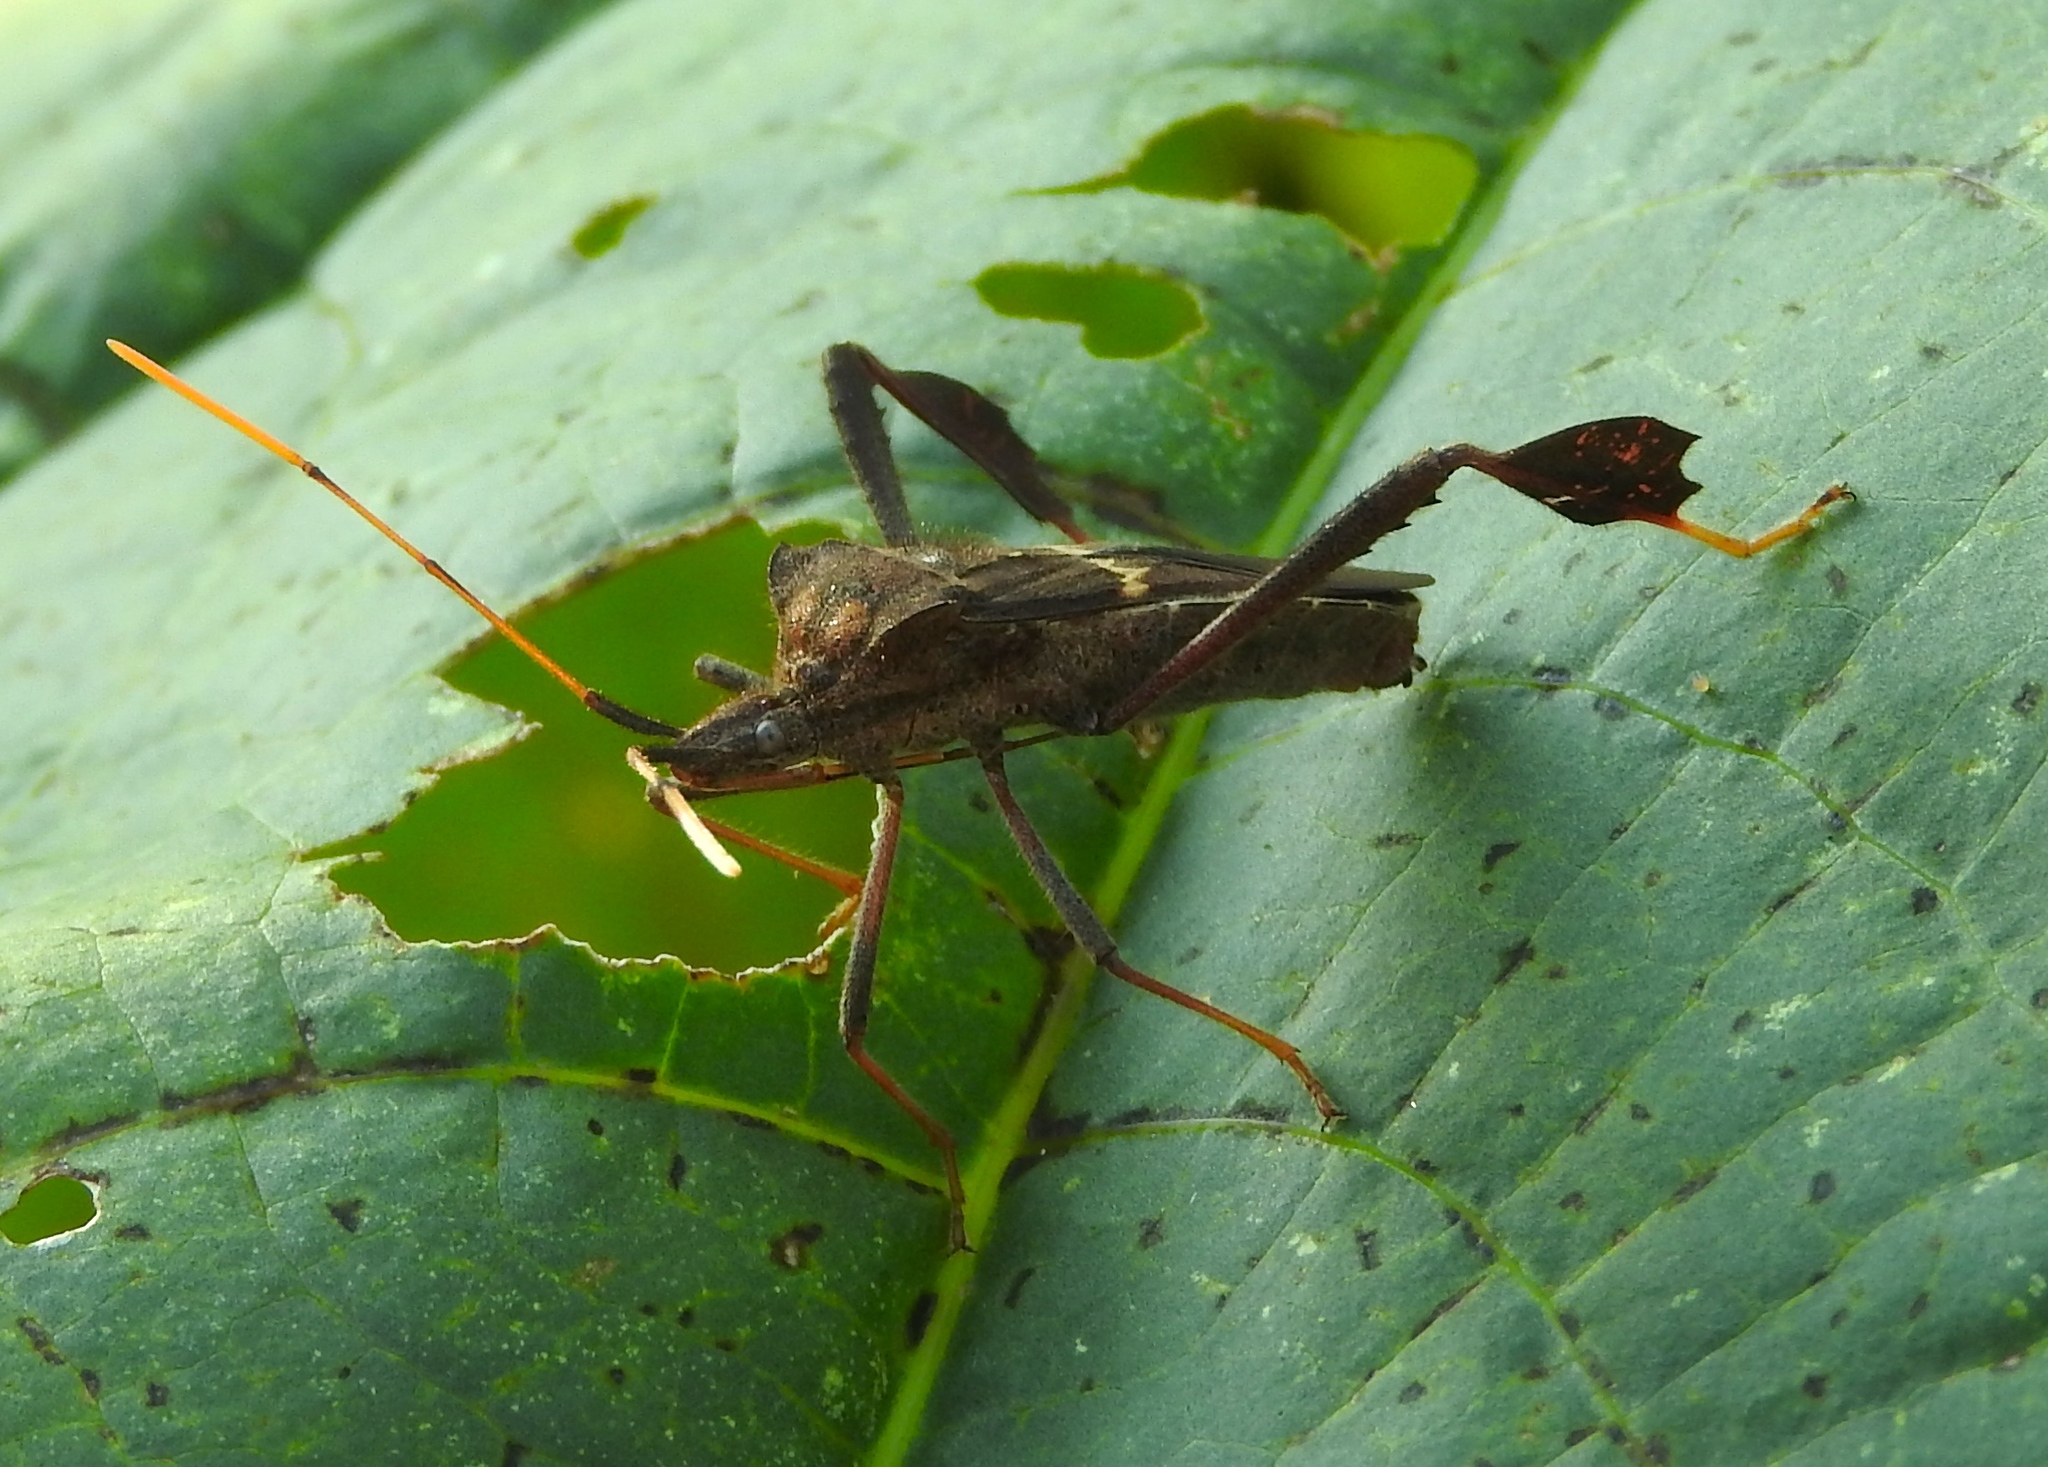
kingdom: Animalia
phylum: Arthropoda
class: Insecta
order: Hemiptera
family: Coreidae
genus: Leptoglossus
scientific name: Leptoglossus zonatus
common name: Large-legged bug
